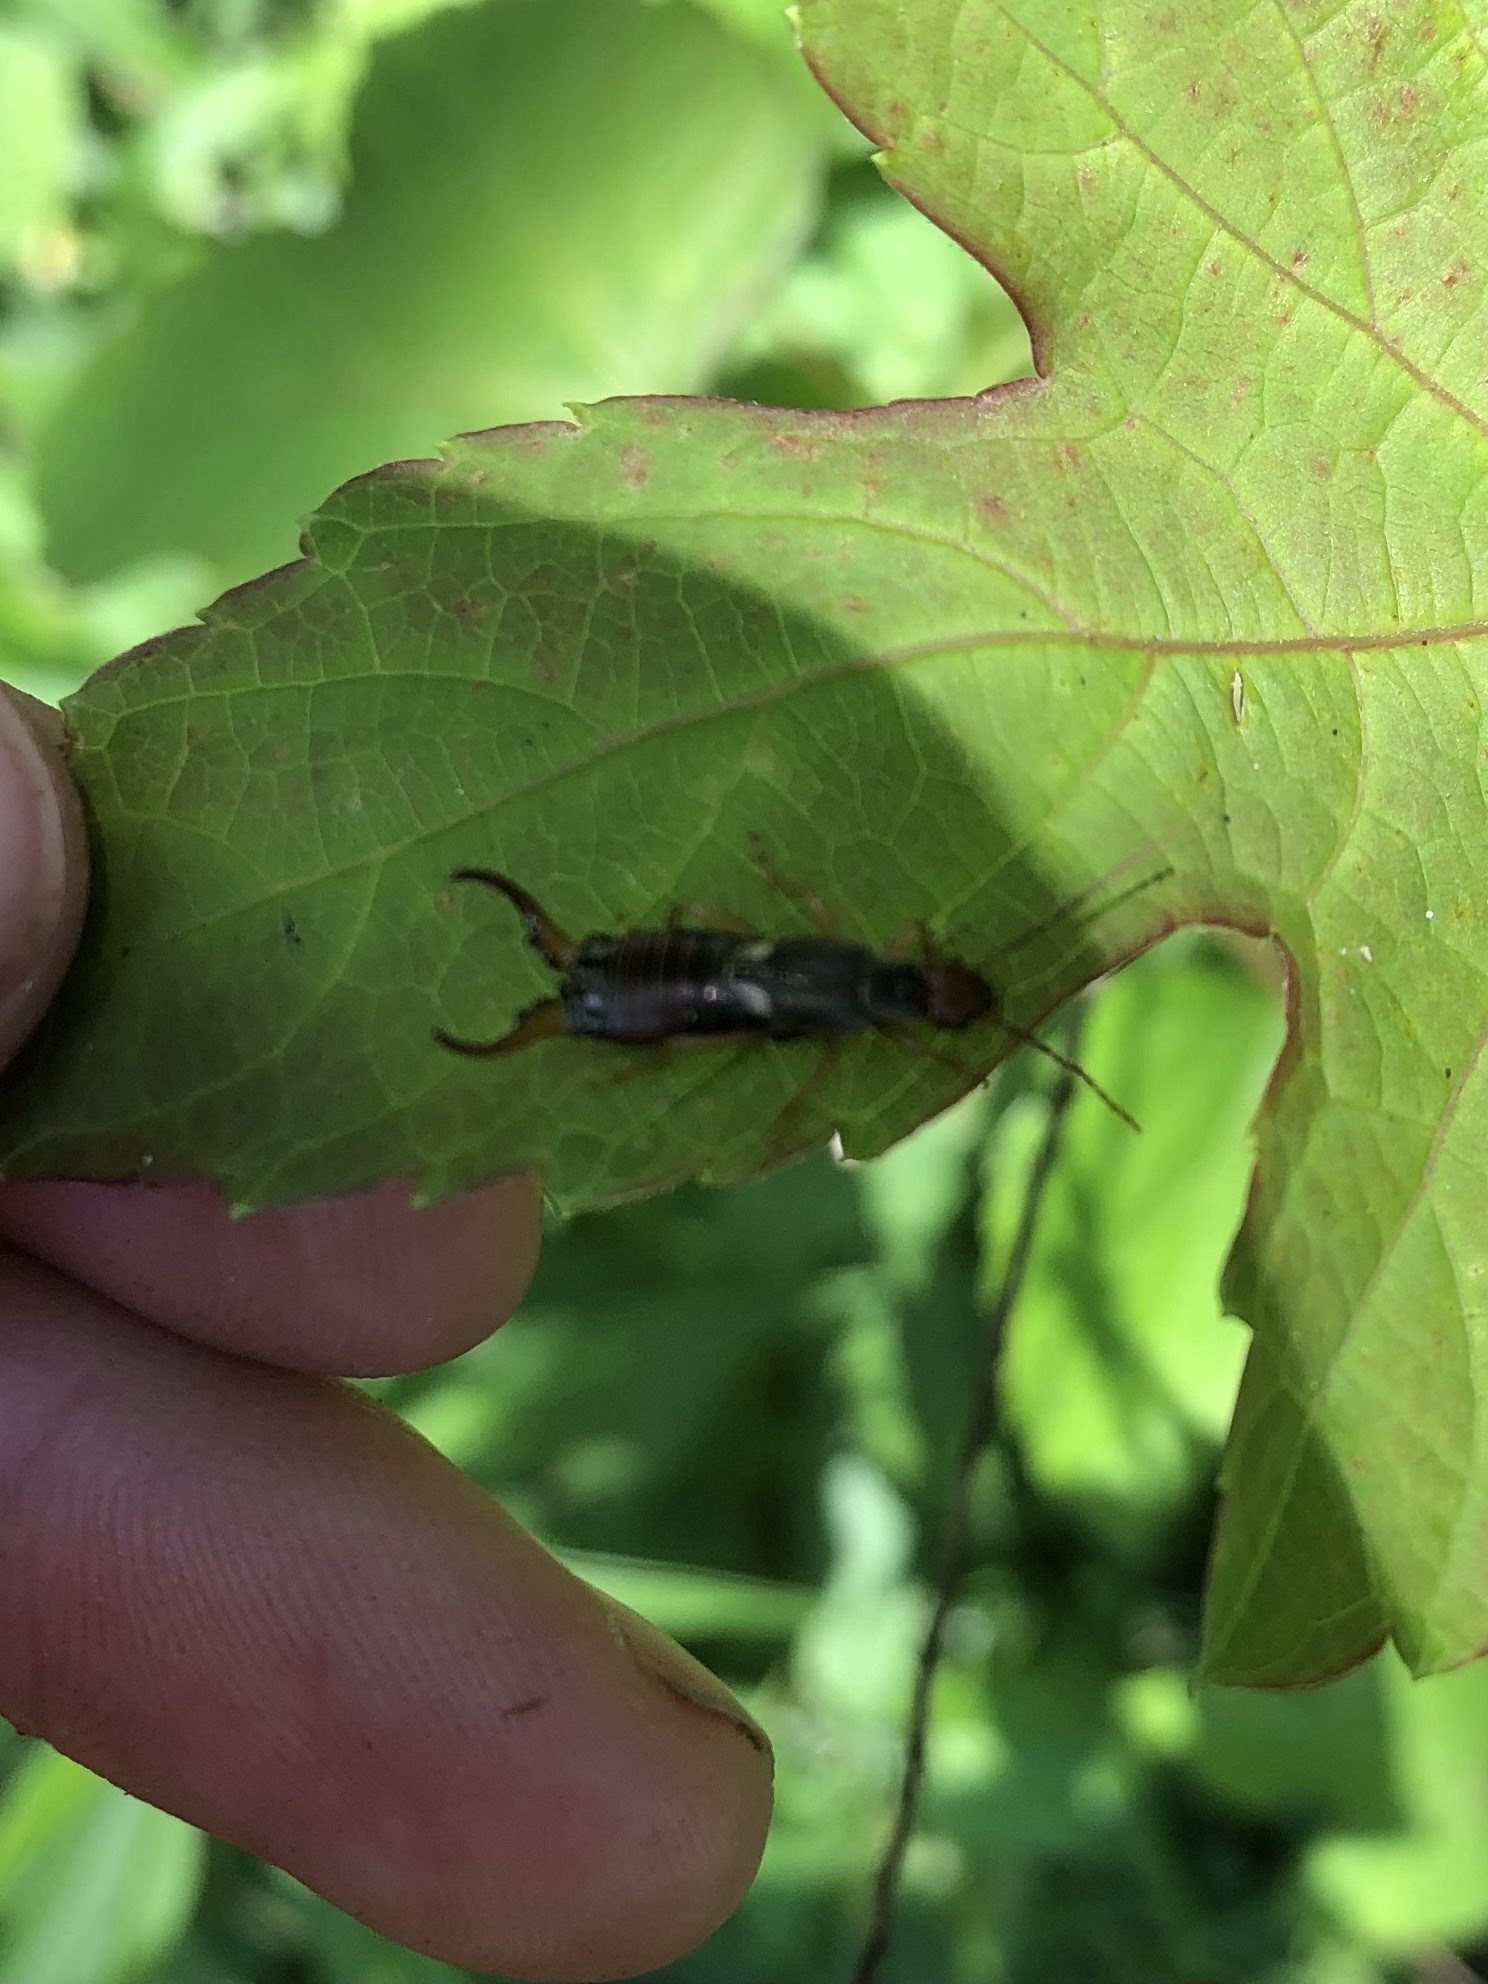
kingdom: Animalia
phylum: Arthropoda
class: Insecta
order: Dermaptera
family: Forficulidae
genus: Forficula
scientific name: Forficula
